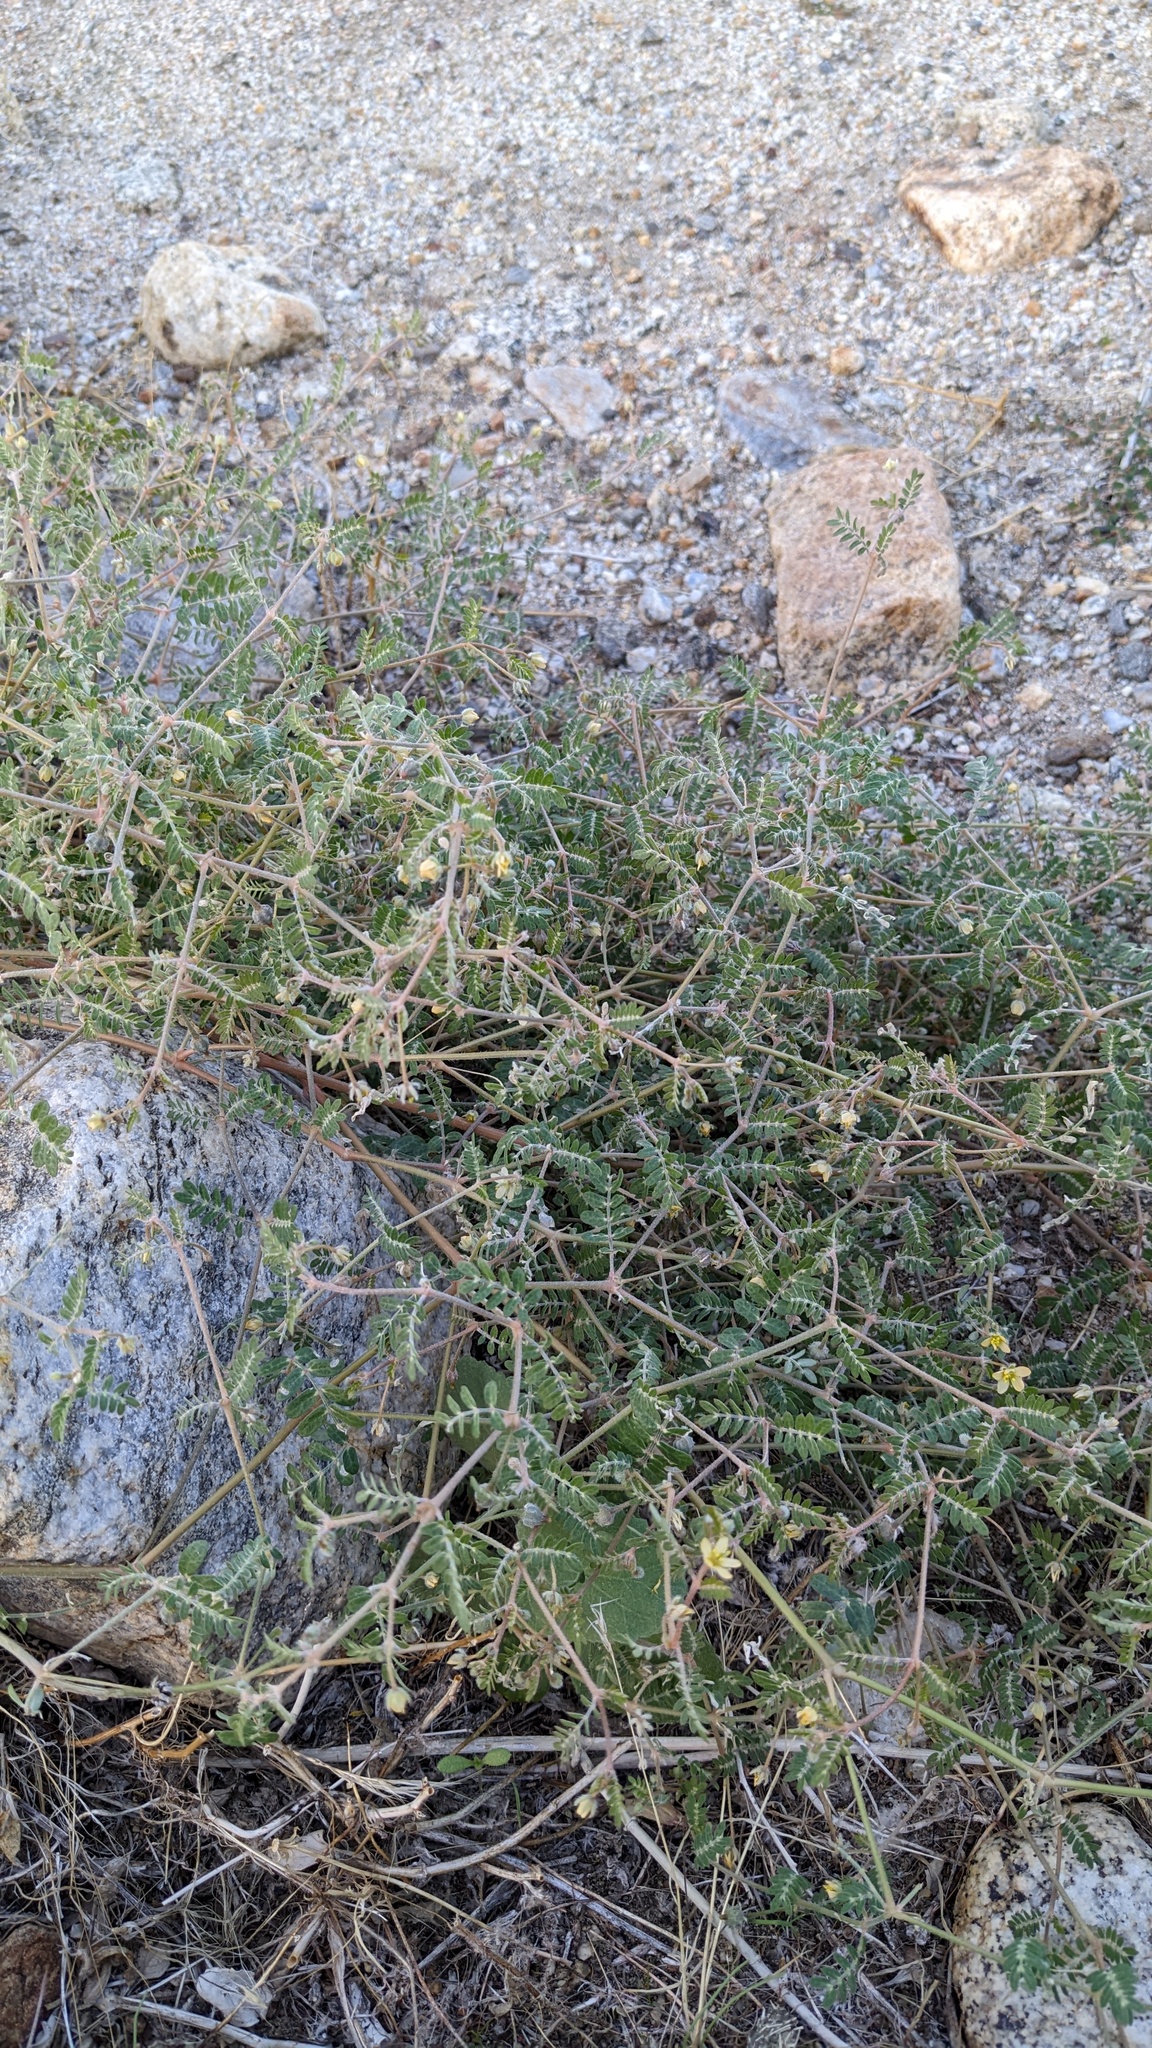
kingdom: Plantae
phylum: Tracheophyta
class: Magnoliopsida
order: Zygophyllales
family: Zygophyllaceae
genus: Kallstroemia
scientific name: Kallstroemia californica
